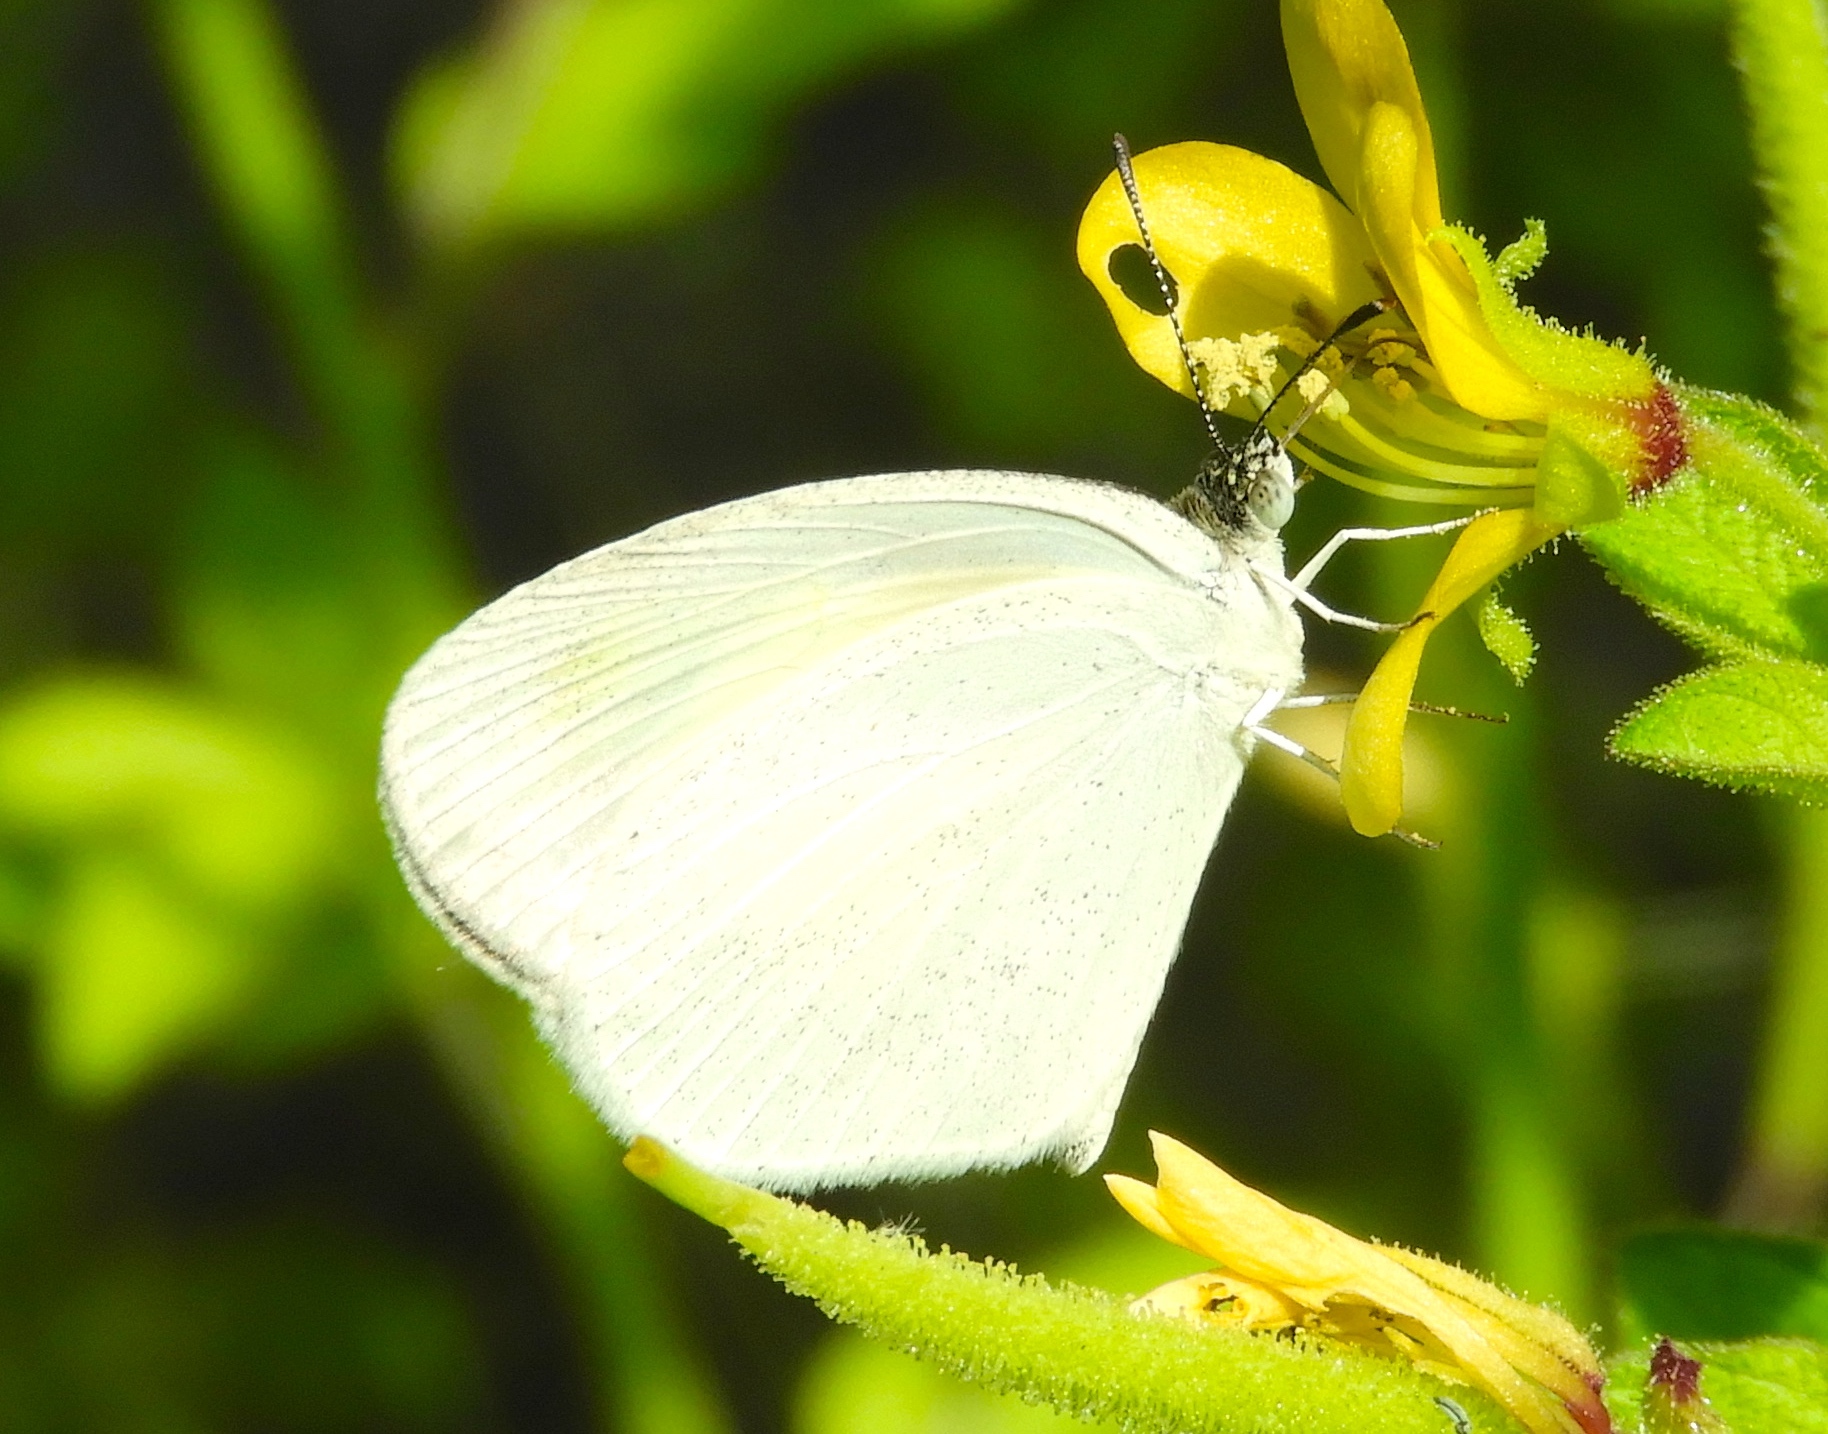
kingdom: Animalia
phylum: Arthropoda
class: Insecta
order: Lepidoptera
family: Pieridae
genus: Eurema
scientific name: Eurema daira
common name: Barred sulphur
